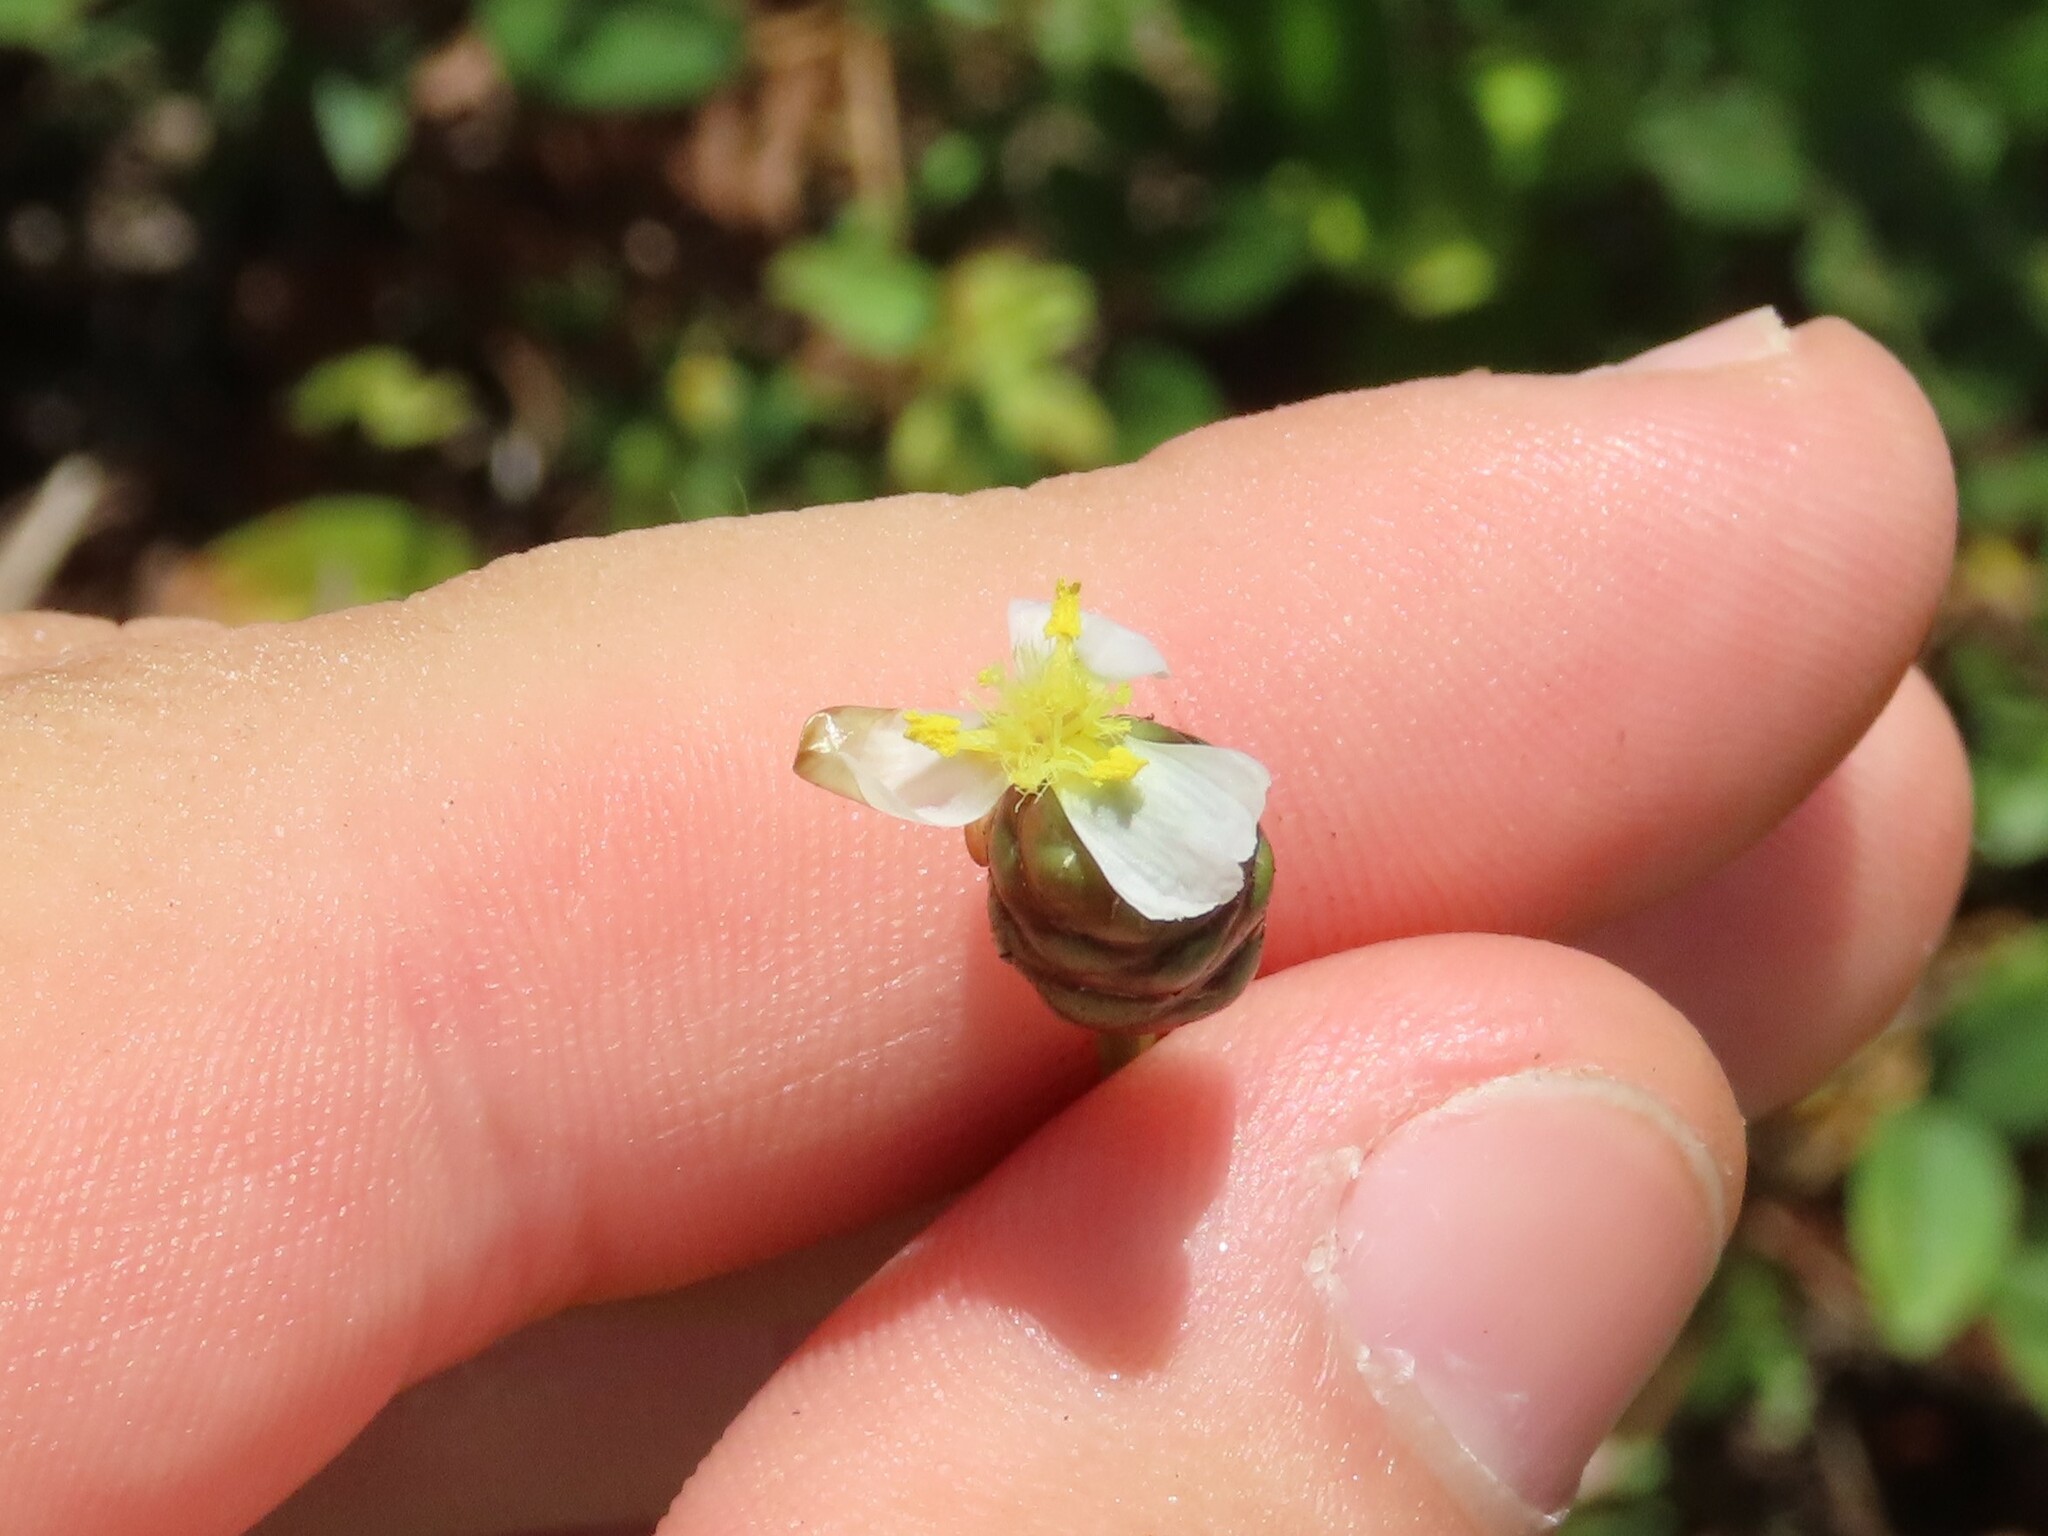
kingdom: Plantae
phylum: Tracheophyta
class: Liliopsida
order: Poales
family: Xyridaceae
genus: Xyris
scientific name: Xyris platylepis
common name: Tall yelloweyed grass
